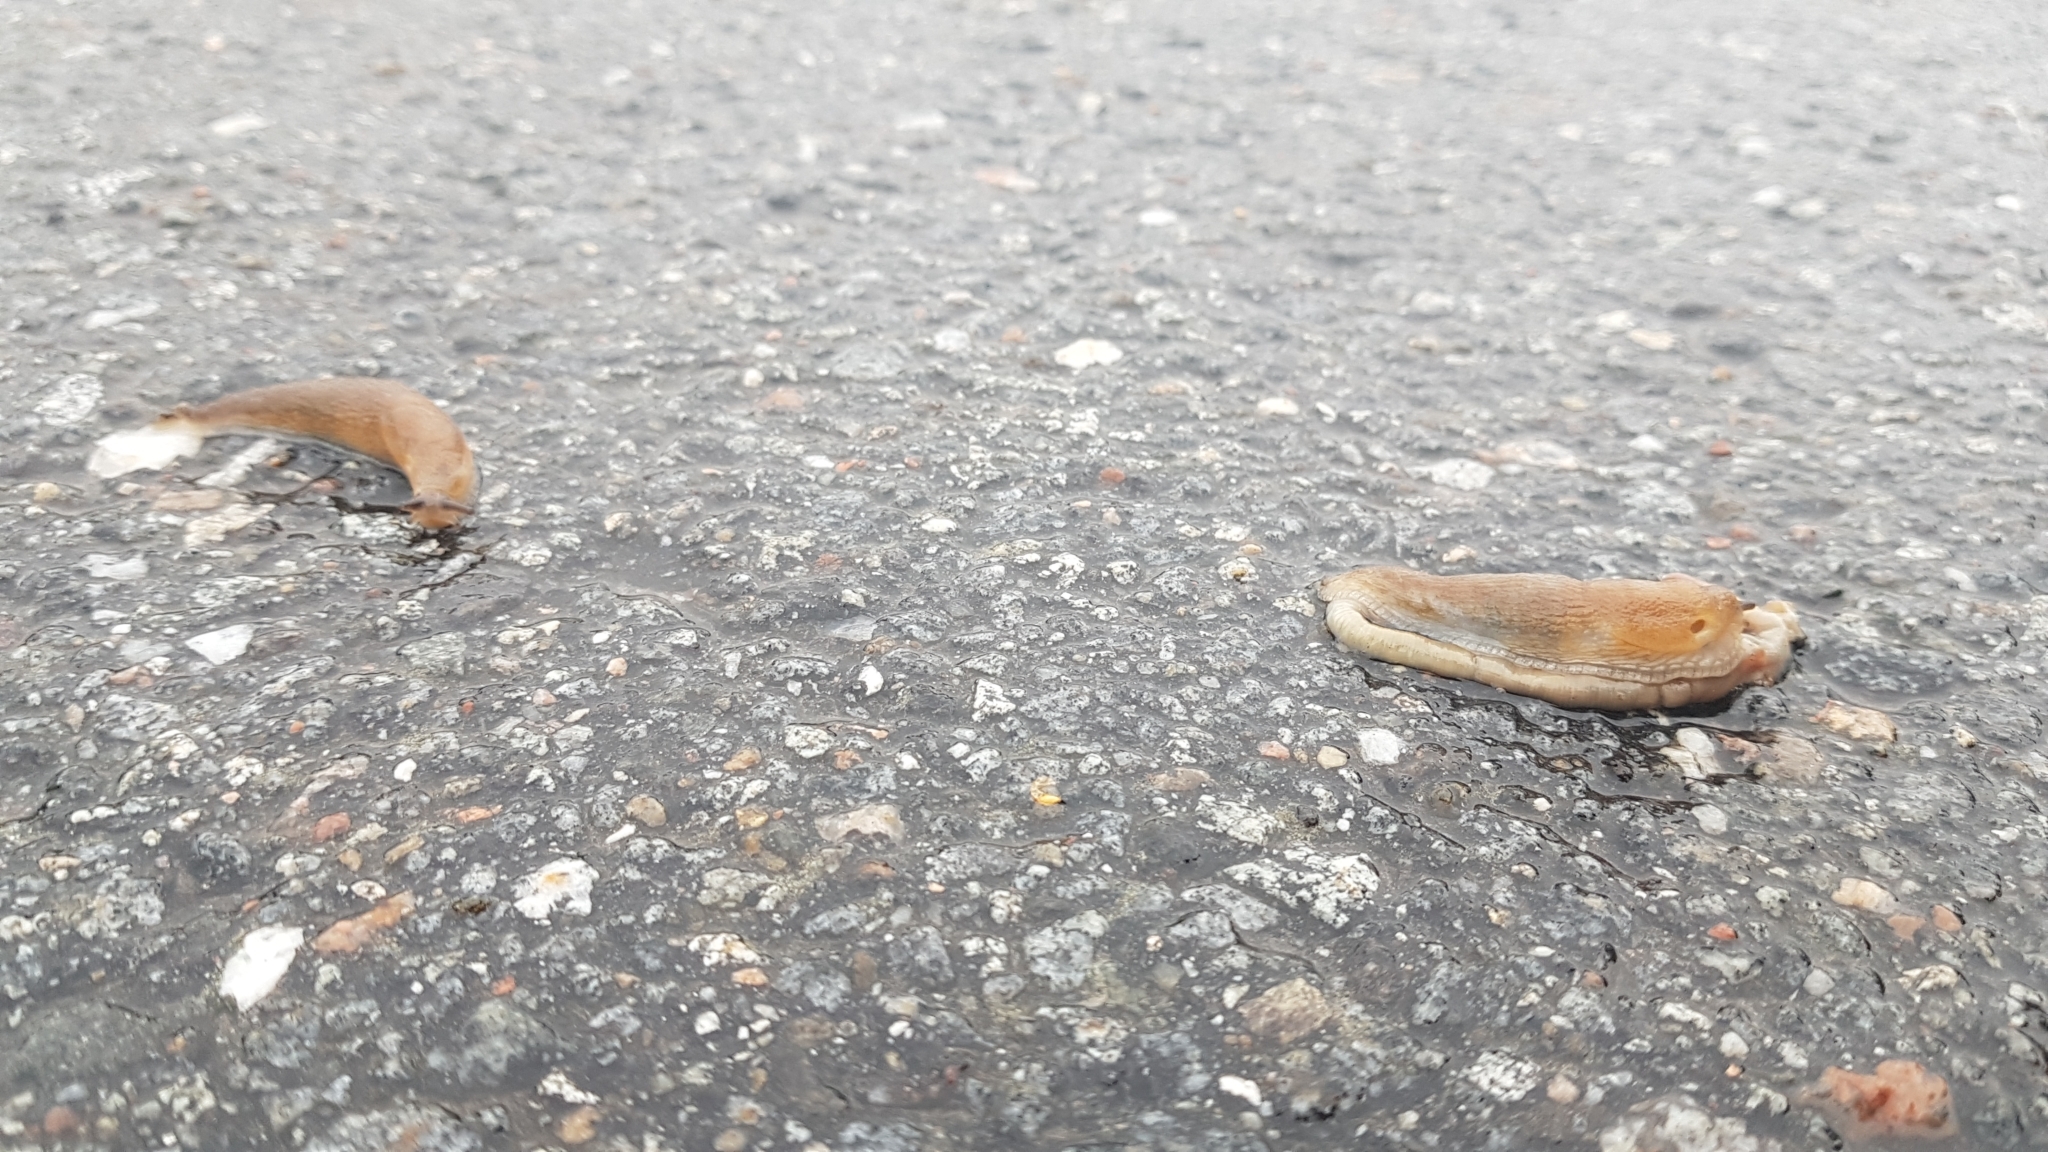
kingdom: Animalia
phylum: Mollusca
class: Gastropoda
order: Stylommatophora
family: Arionidae
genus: Arion
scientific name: Arion vulgaris
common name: Lusitanian slug
